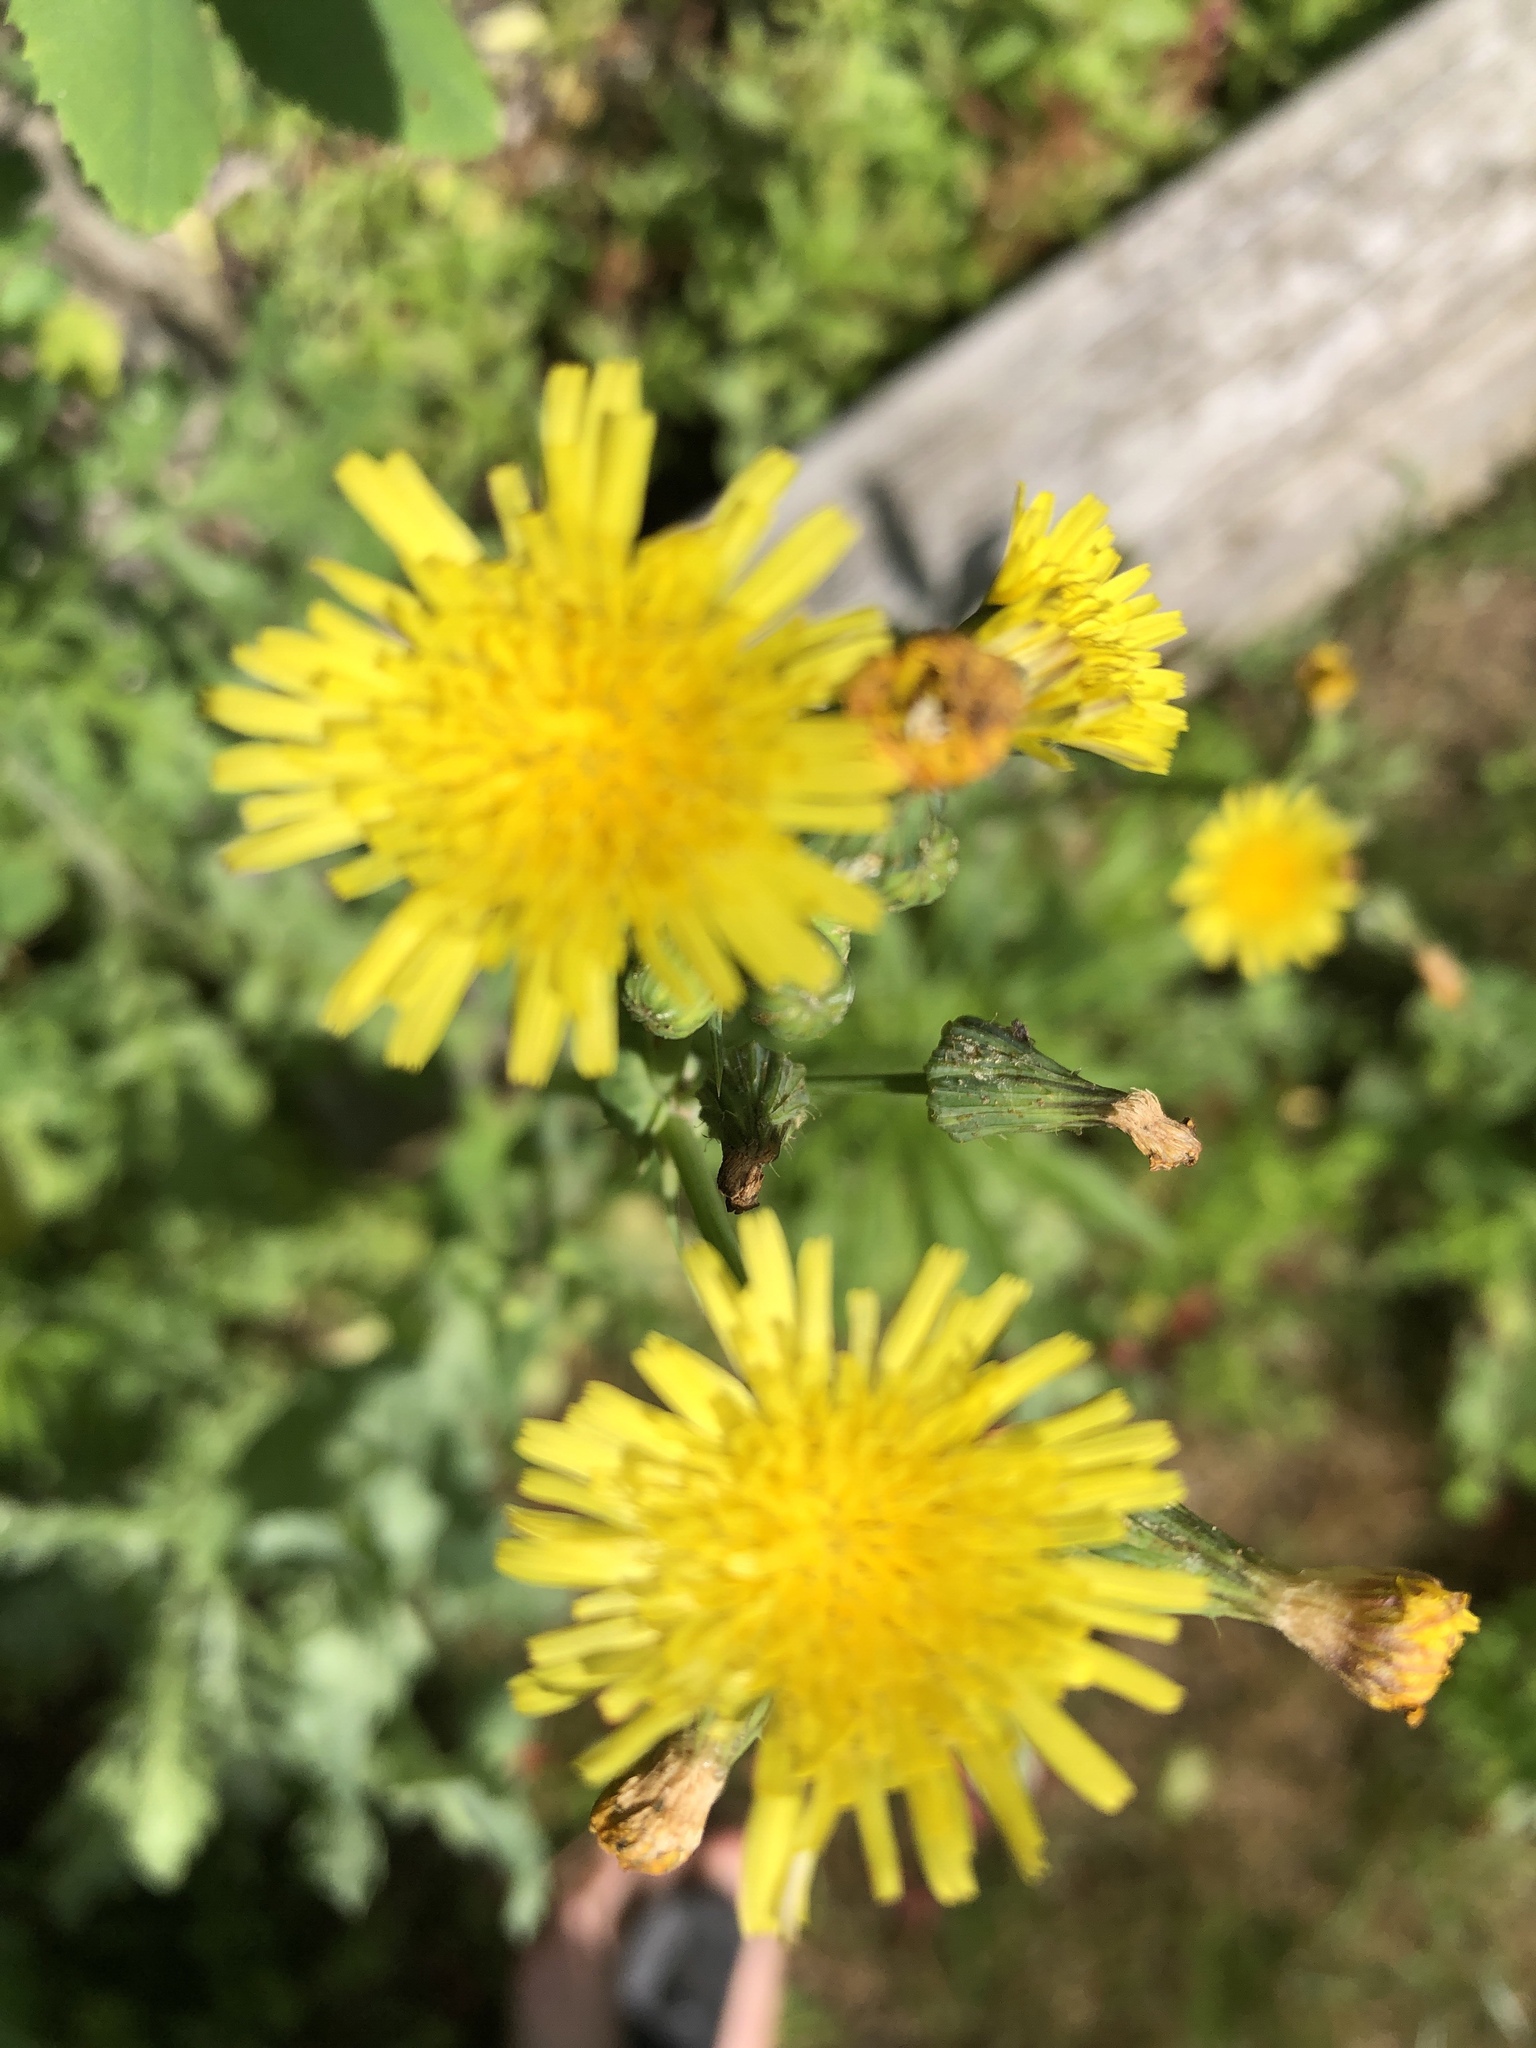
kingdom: Plantae
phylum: Tracheophyta
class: Magnoliopsida
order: Asterales
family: Asteraceae
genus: Sonchus
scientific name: Sonchus oleraceus
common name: Common sowthistle
